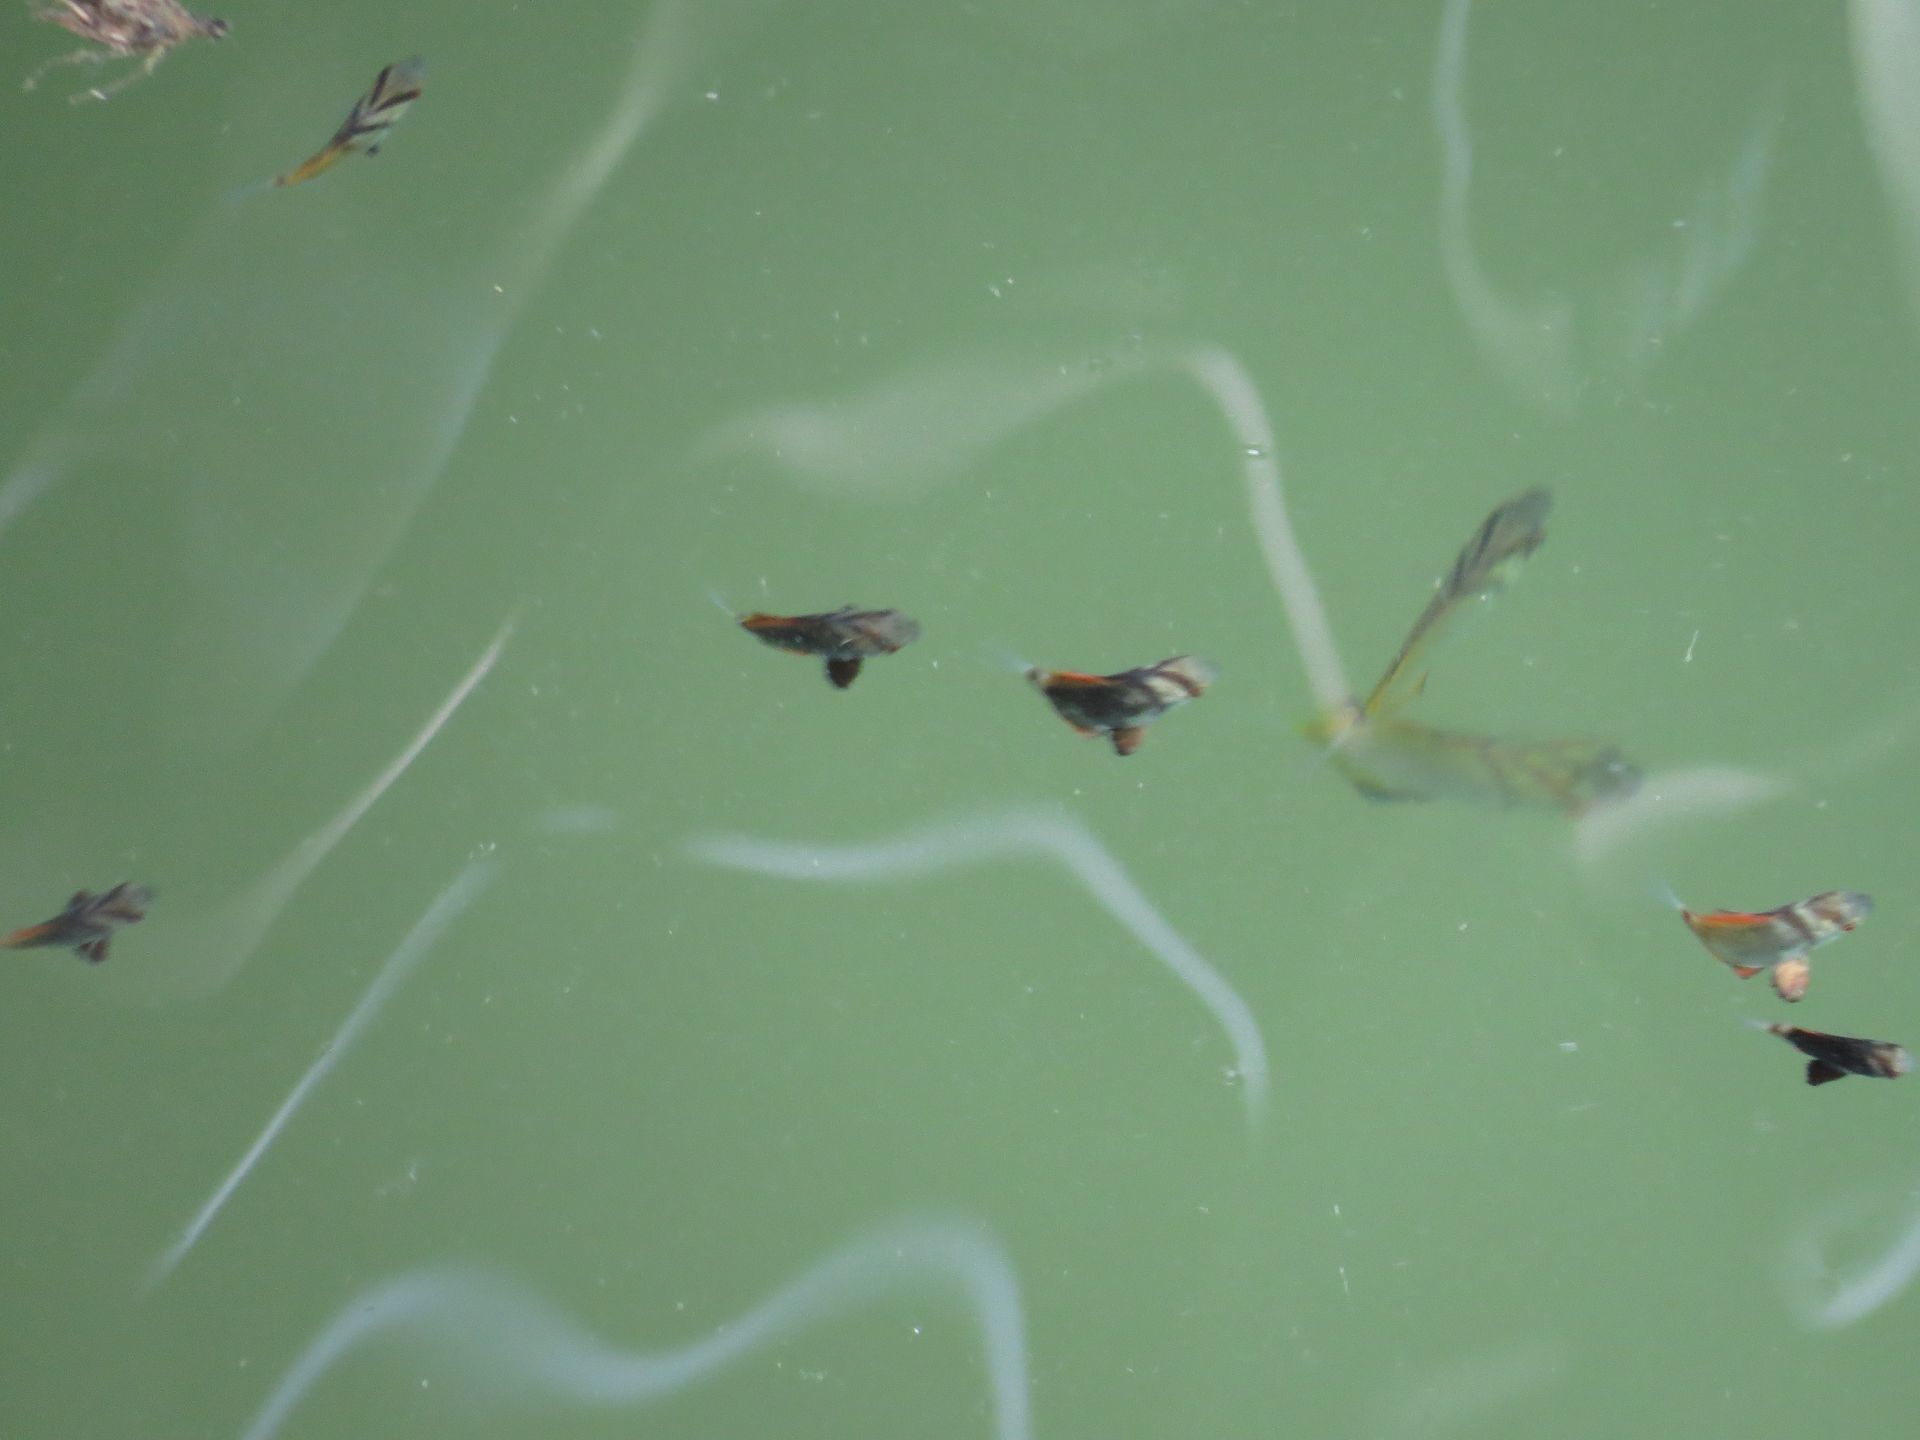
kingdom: Animalia
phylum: Chordata
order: Perciformes
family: Ephippidae
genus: Platax
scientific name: Platax orbicularis
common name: Batfish
